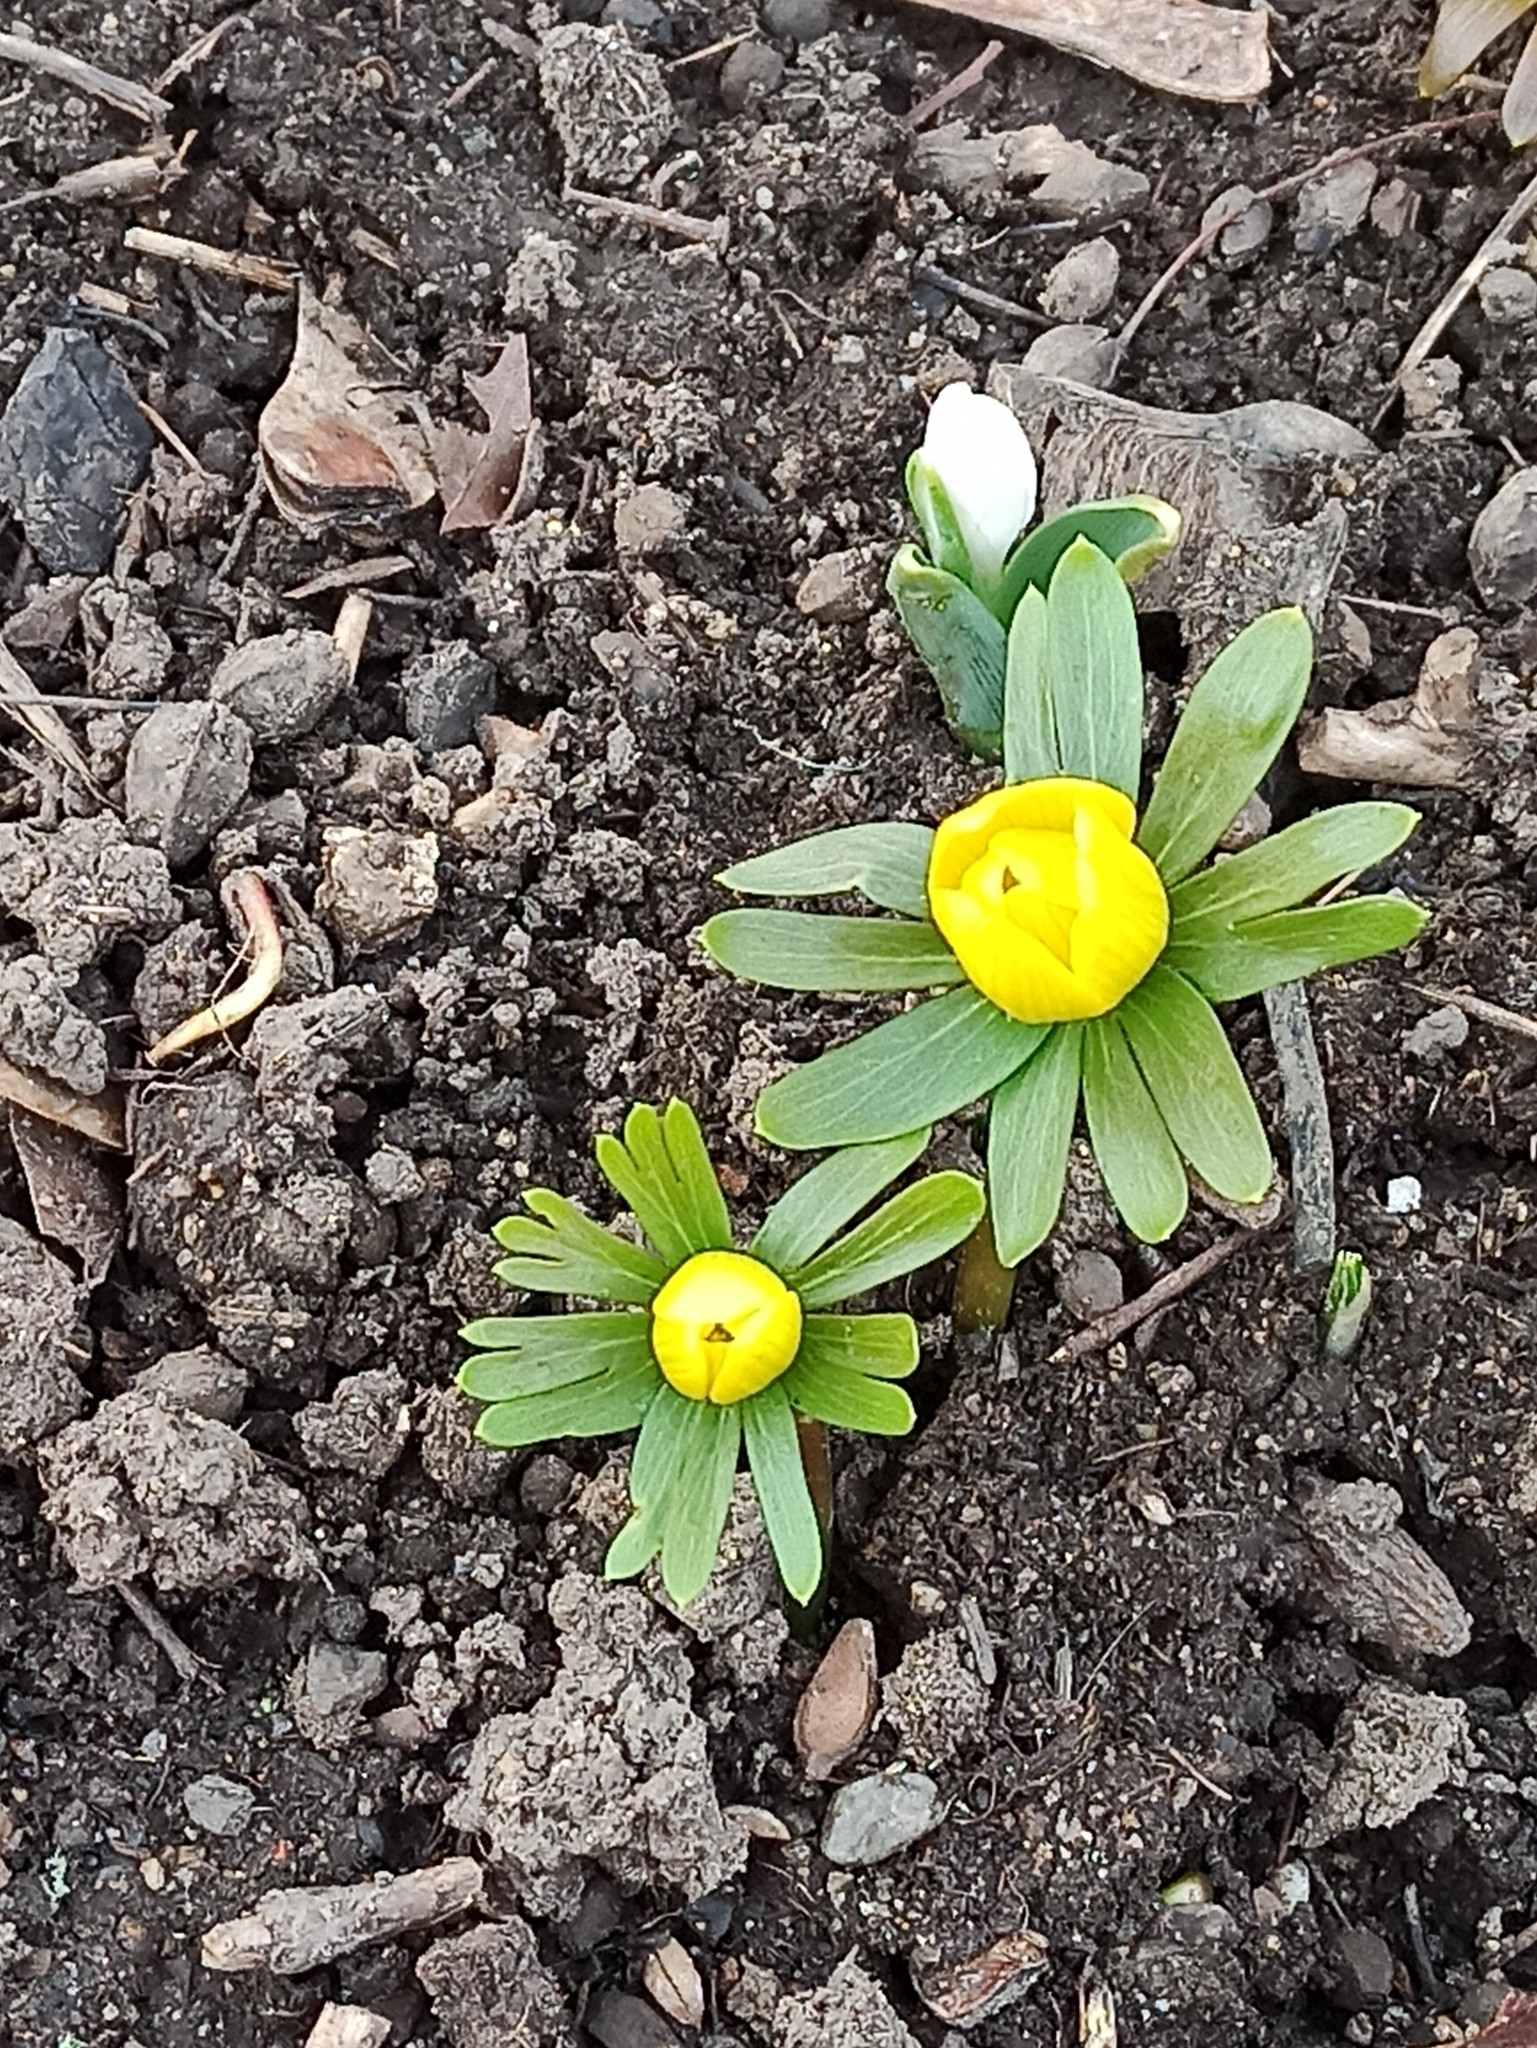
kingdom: Plantae
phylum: Tracheophyta
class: Magnoliopsida
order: Ranunculales
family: Ranunculaceae
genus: Eranthis
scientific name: Eranthis hyemalis
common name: Winter aconite
